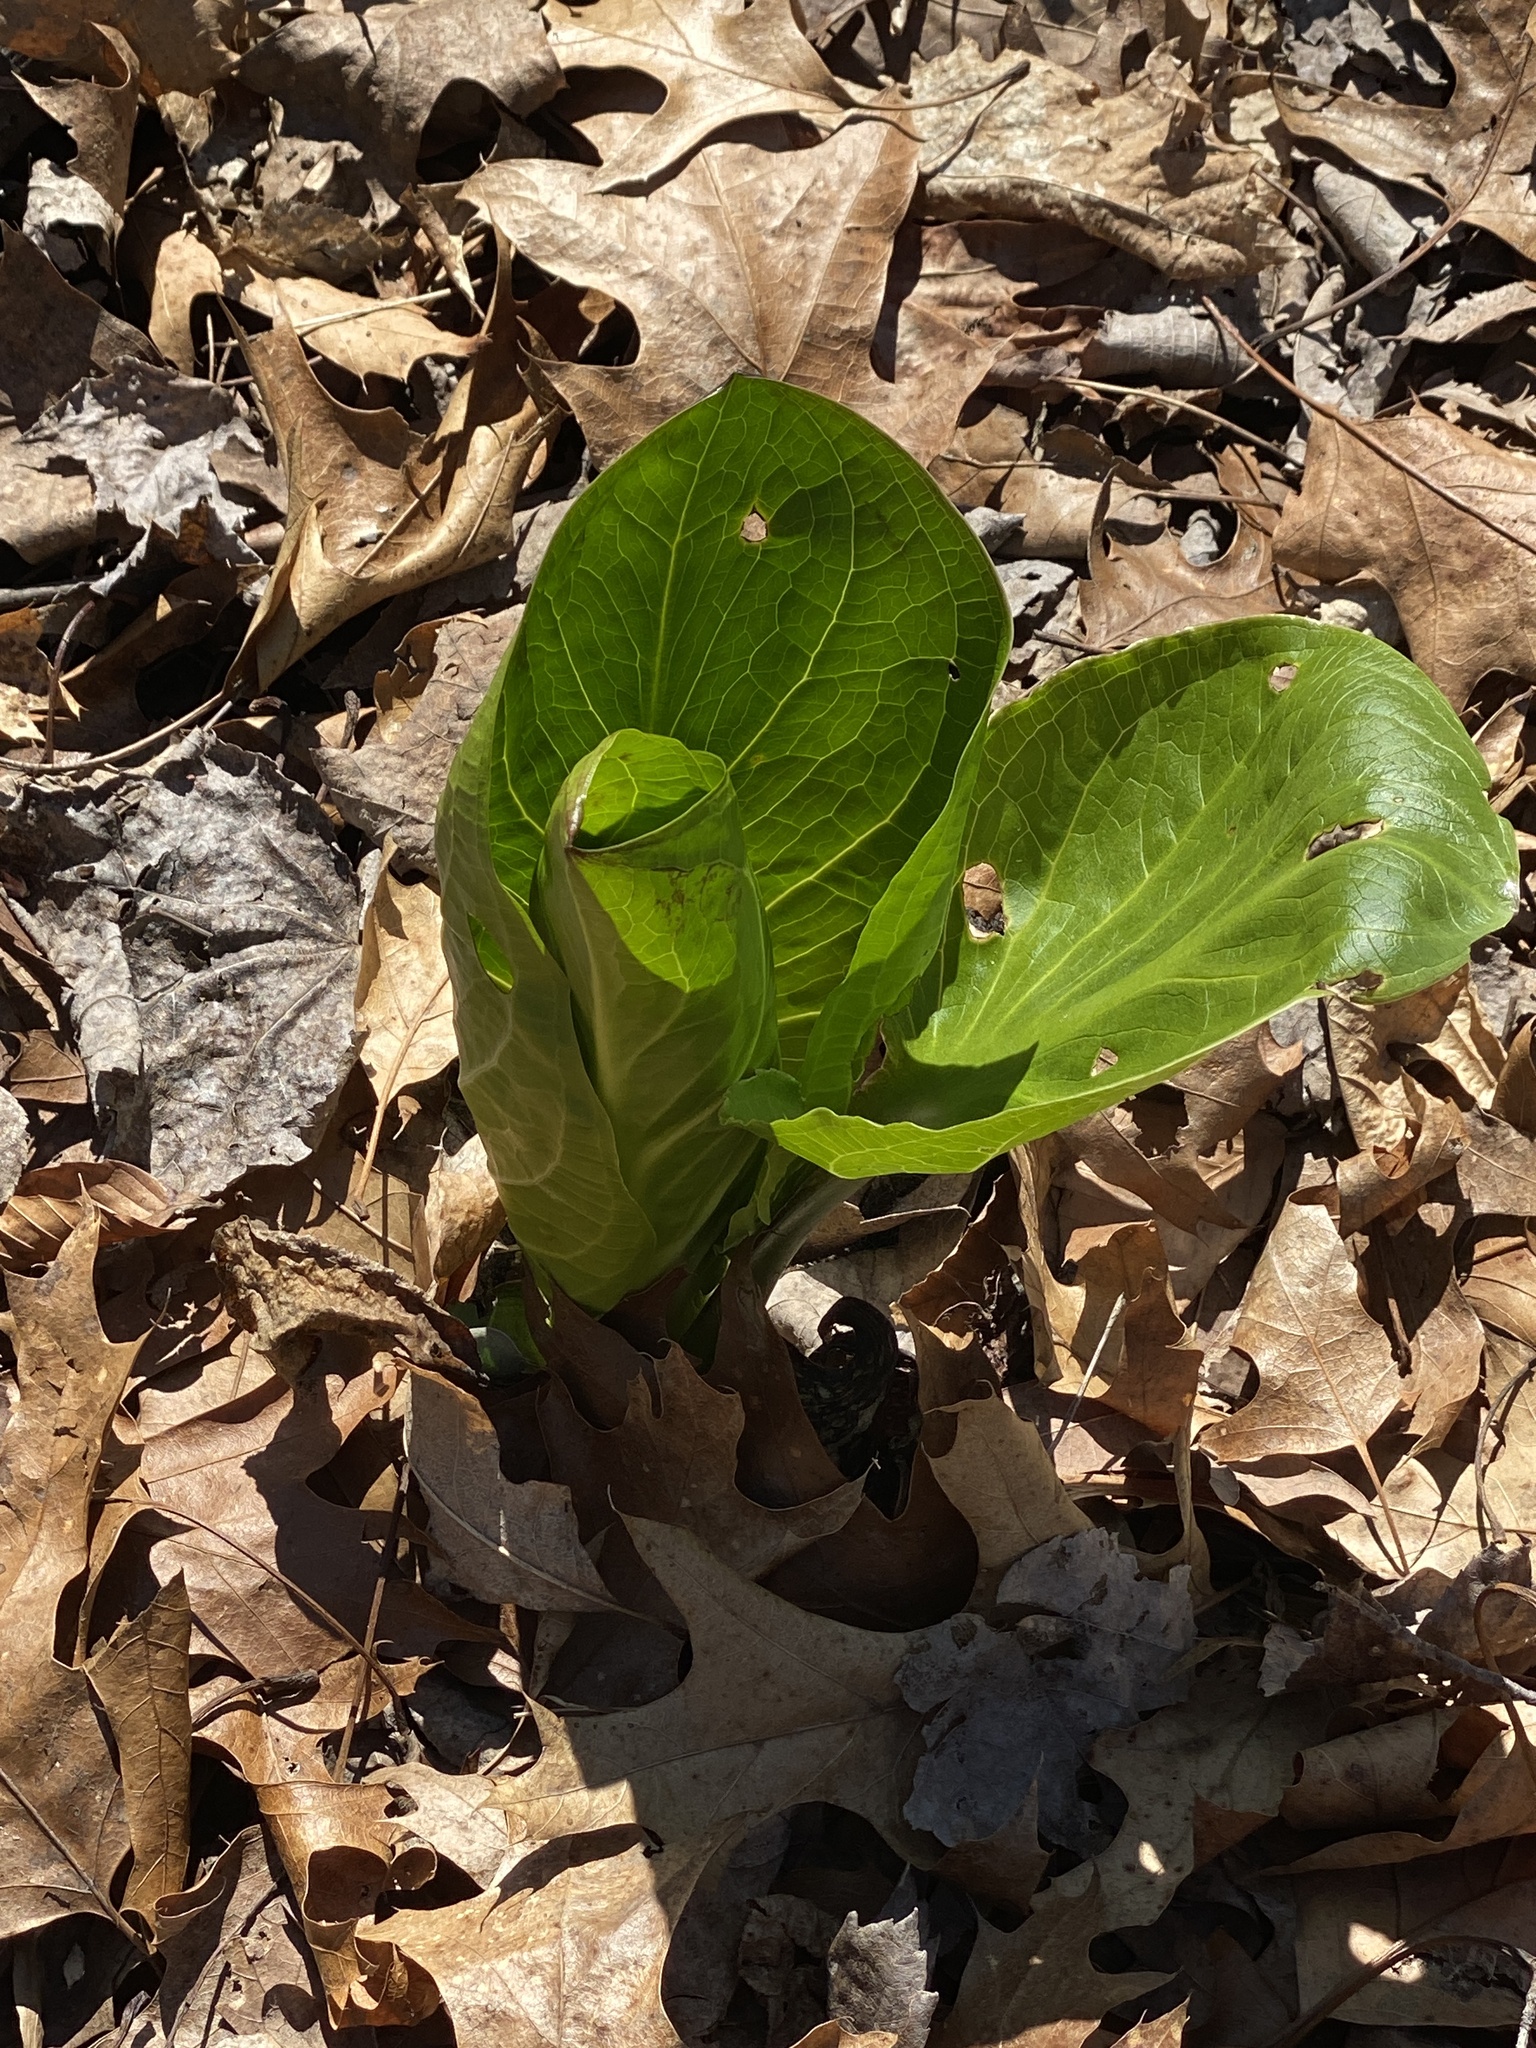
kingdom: Plantae
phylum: Tracheophyta
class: Liliopsida
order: Alismatales
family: Araceae
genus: Symplocarpus
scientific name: Symplocarpus foetidus
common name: Eastern skunk cabbage
